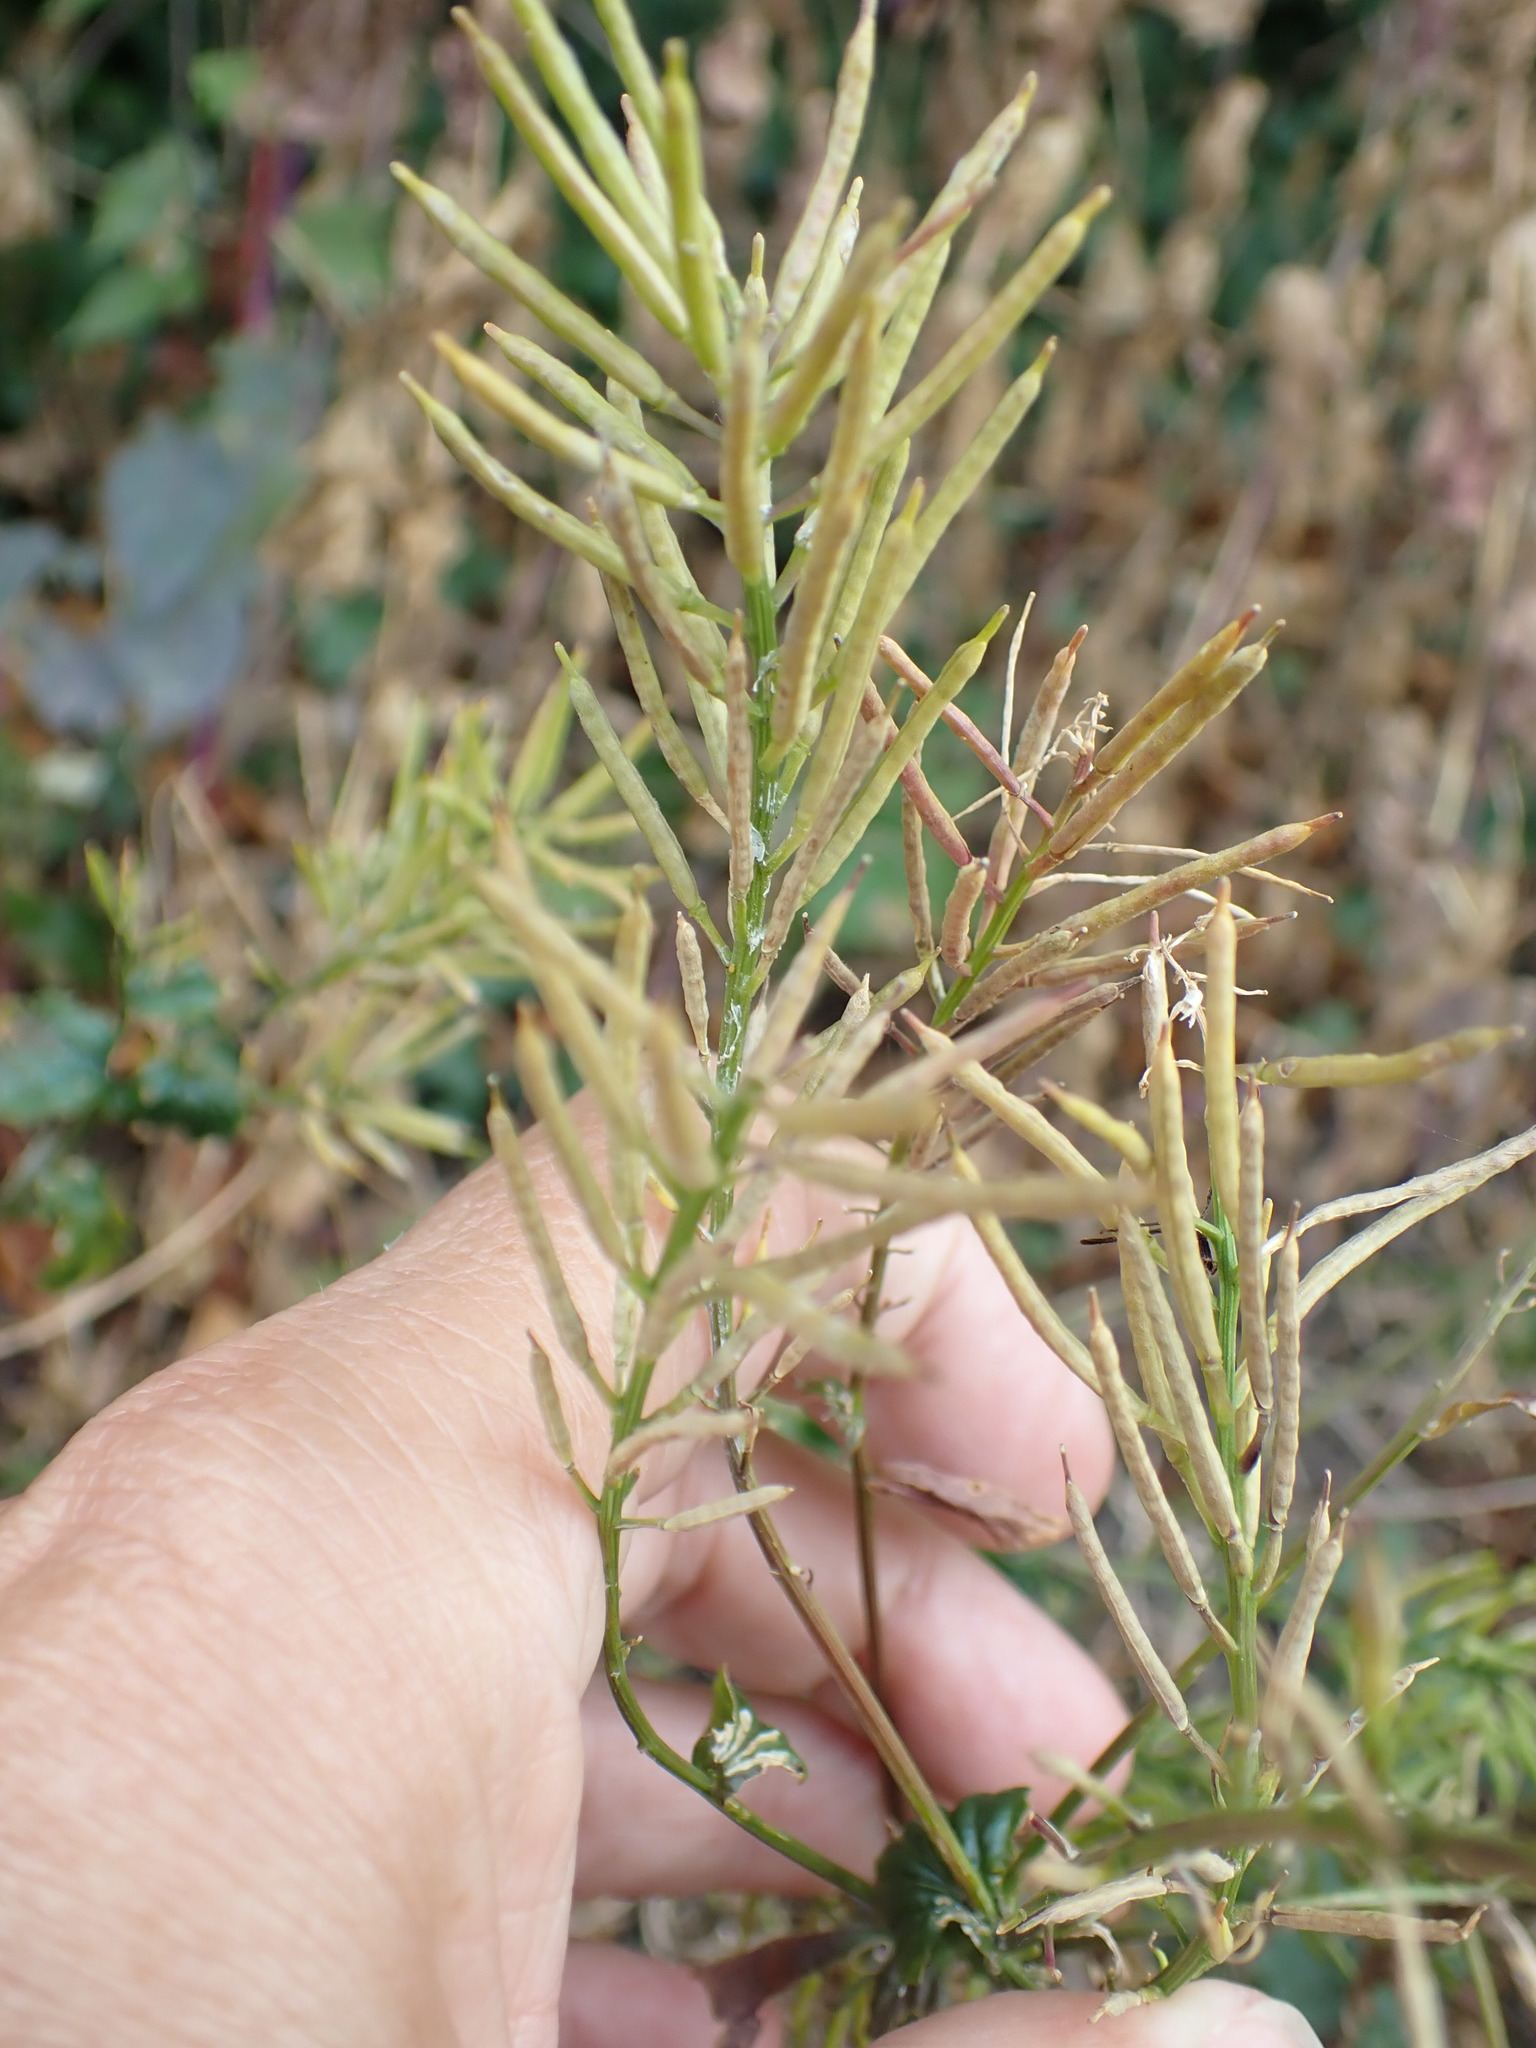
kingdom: Plantae
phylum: Tracheophyta
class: Magnoliopsida
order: Brassicales
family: Brassicaceae
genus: Barbarea
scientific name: Barbarea vulgaris
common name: Cressy-greens
